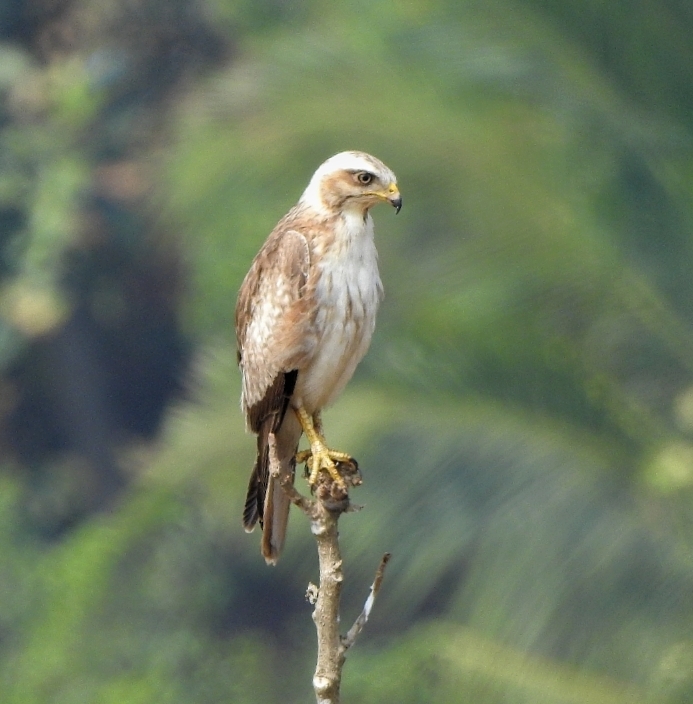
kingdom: Animalia
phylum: Chordata
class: Aves
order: Accipitriformes
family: Accipitridae
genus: Butastur
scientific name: Butastur teesa
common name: White-eyed buzzard
